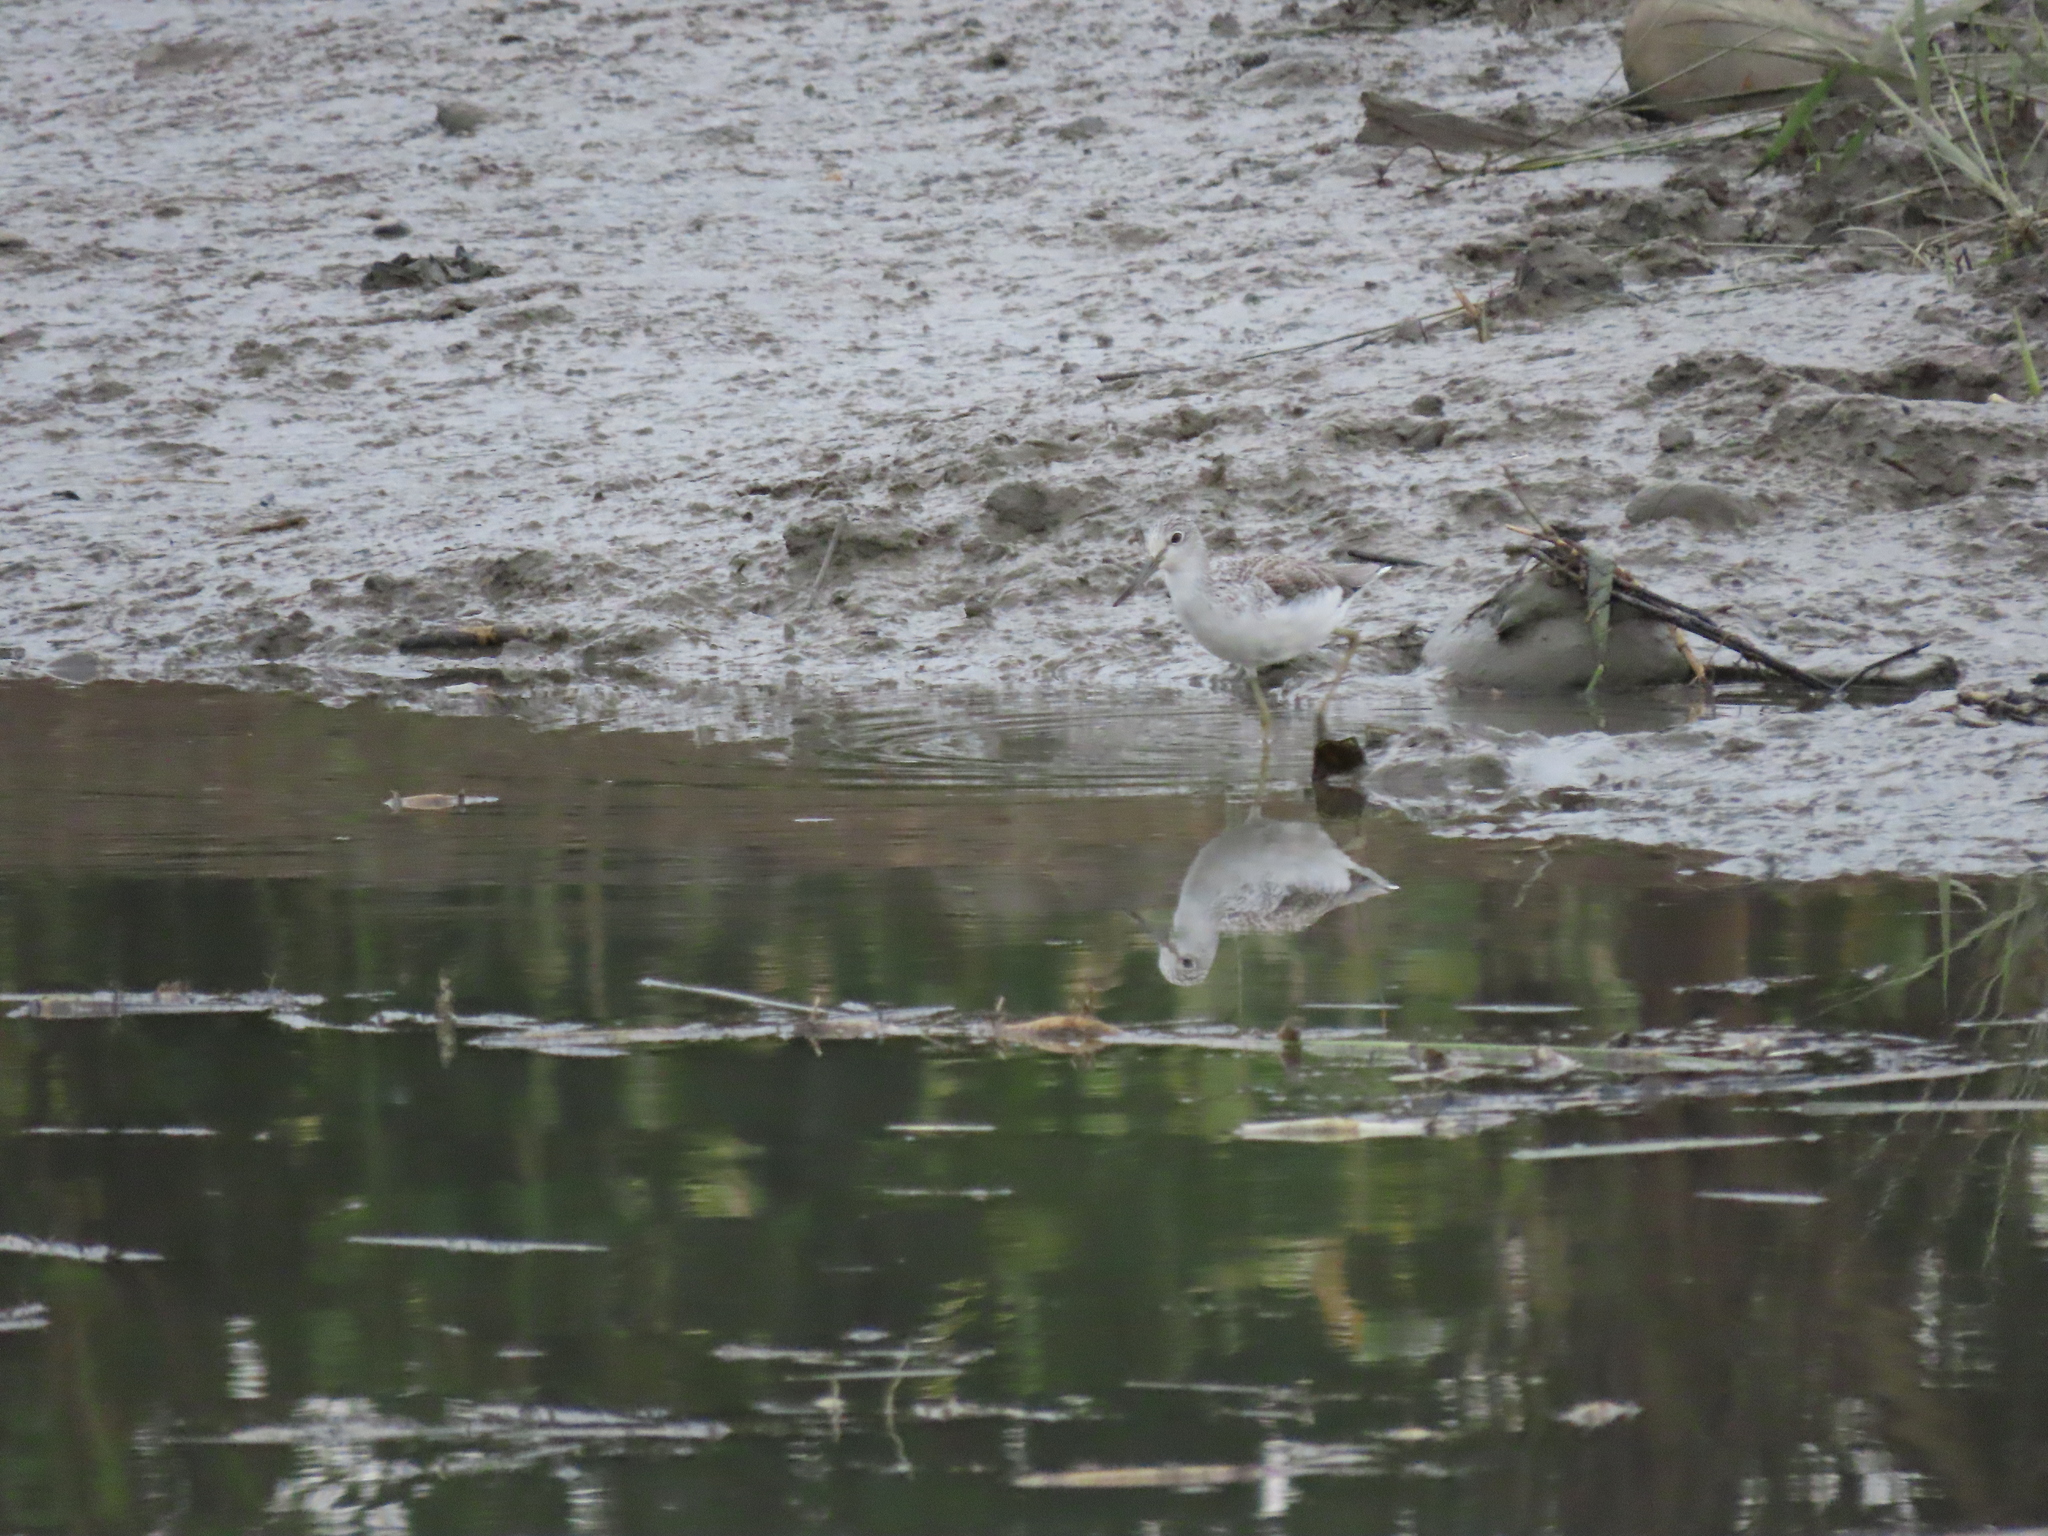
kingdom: Animalia
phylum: Chordata
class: Aves
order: Charadriiformes
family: Scolopacidae
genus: Tringa
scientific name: Tringa nebularia
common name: Common greenshank
